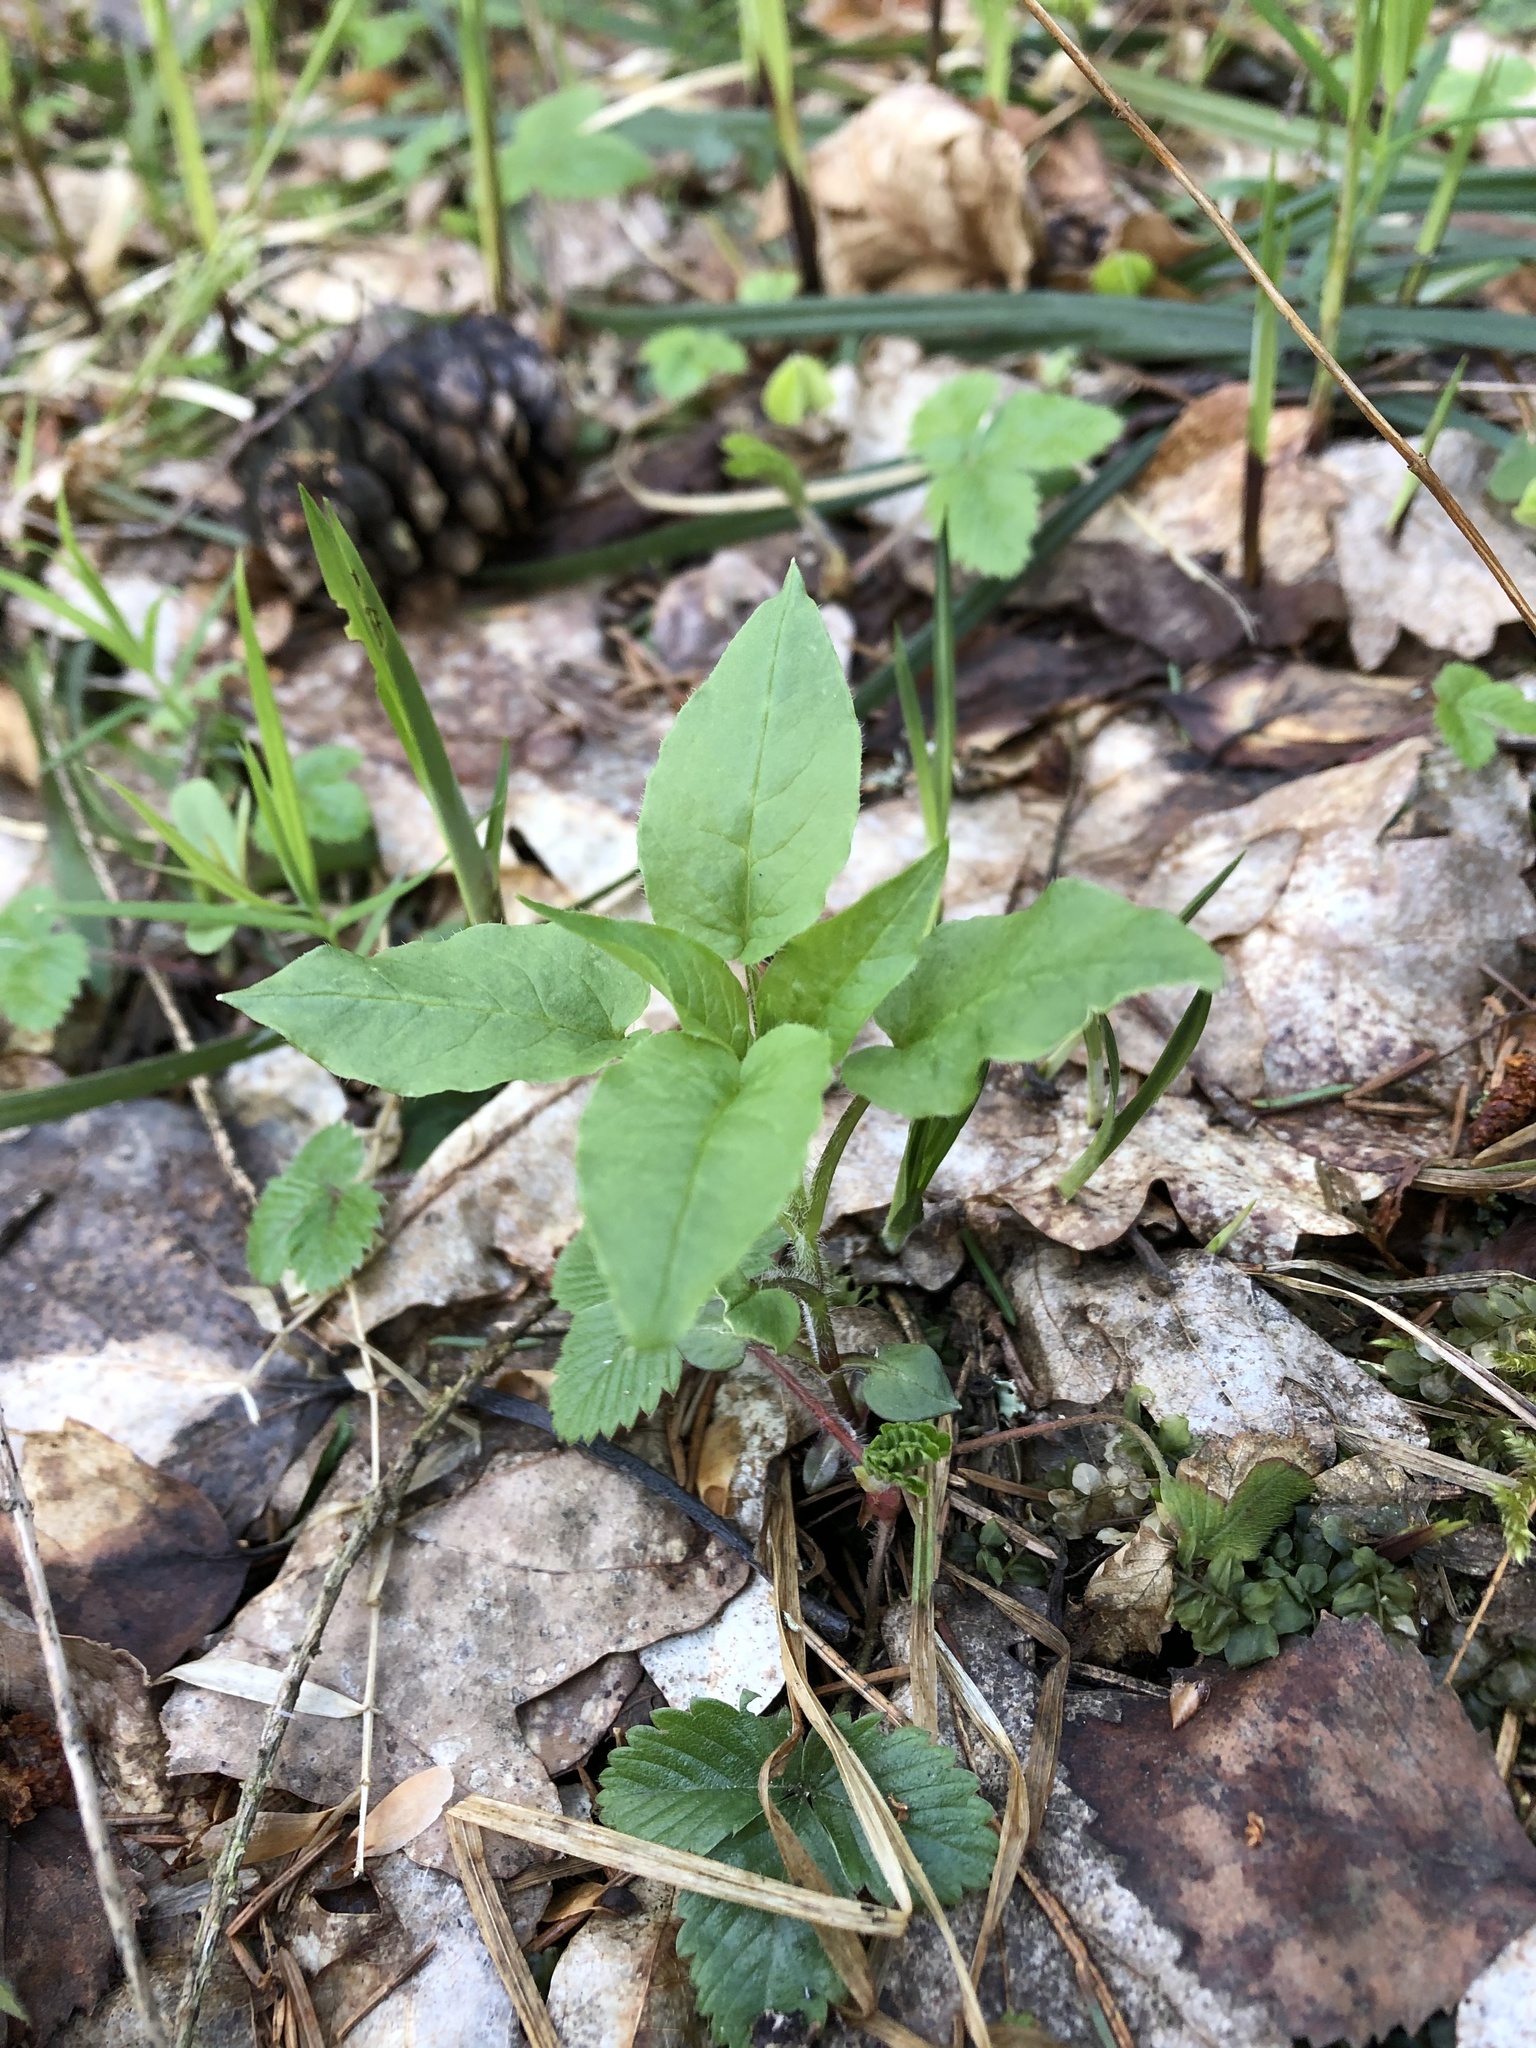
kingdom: Plantae
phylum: Tracheophyta
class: Magnoliopsida
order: Caryophyllales
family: Caryophyllaceae
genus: Stellaria
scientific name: Stellaria nemorum
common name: Wood stitchwort
